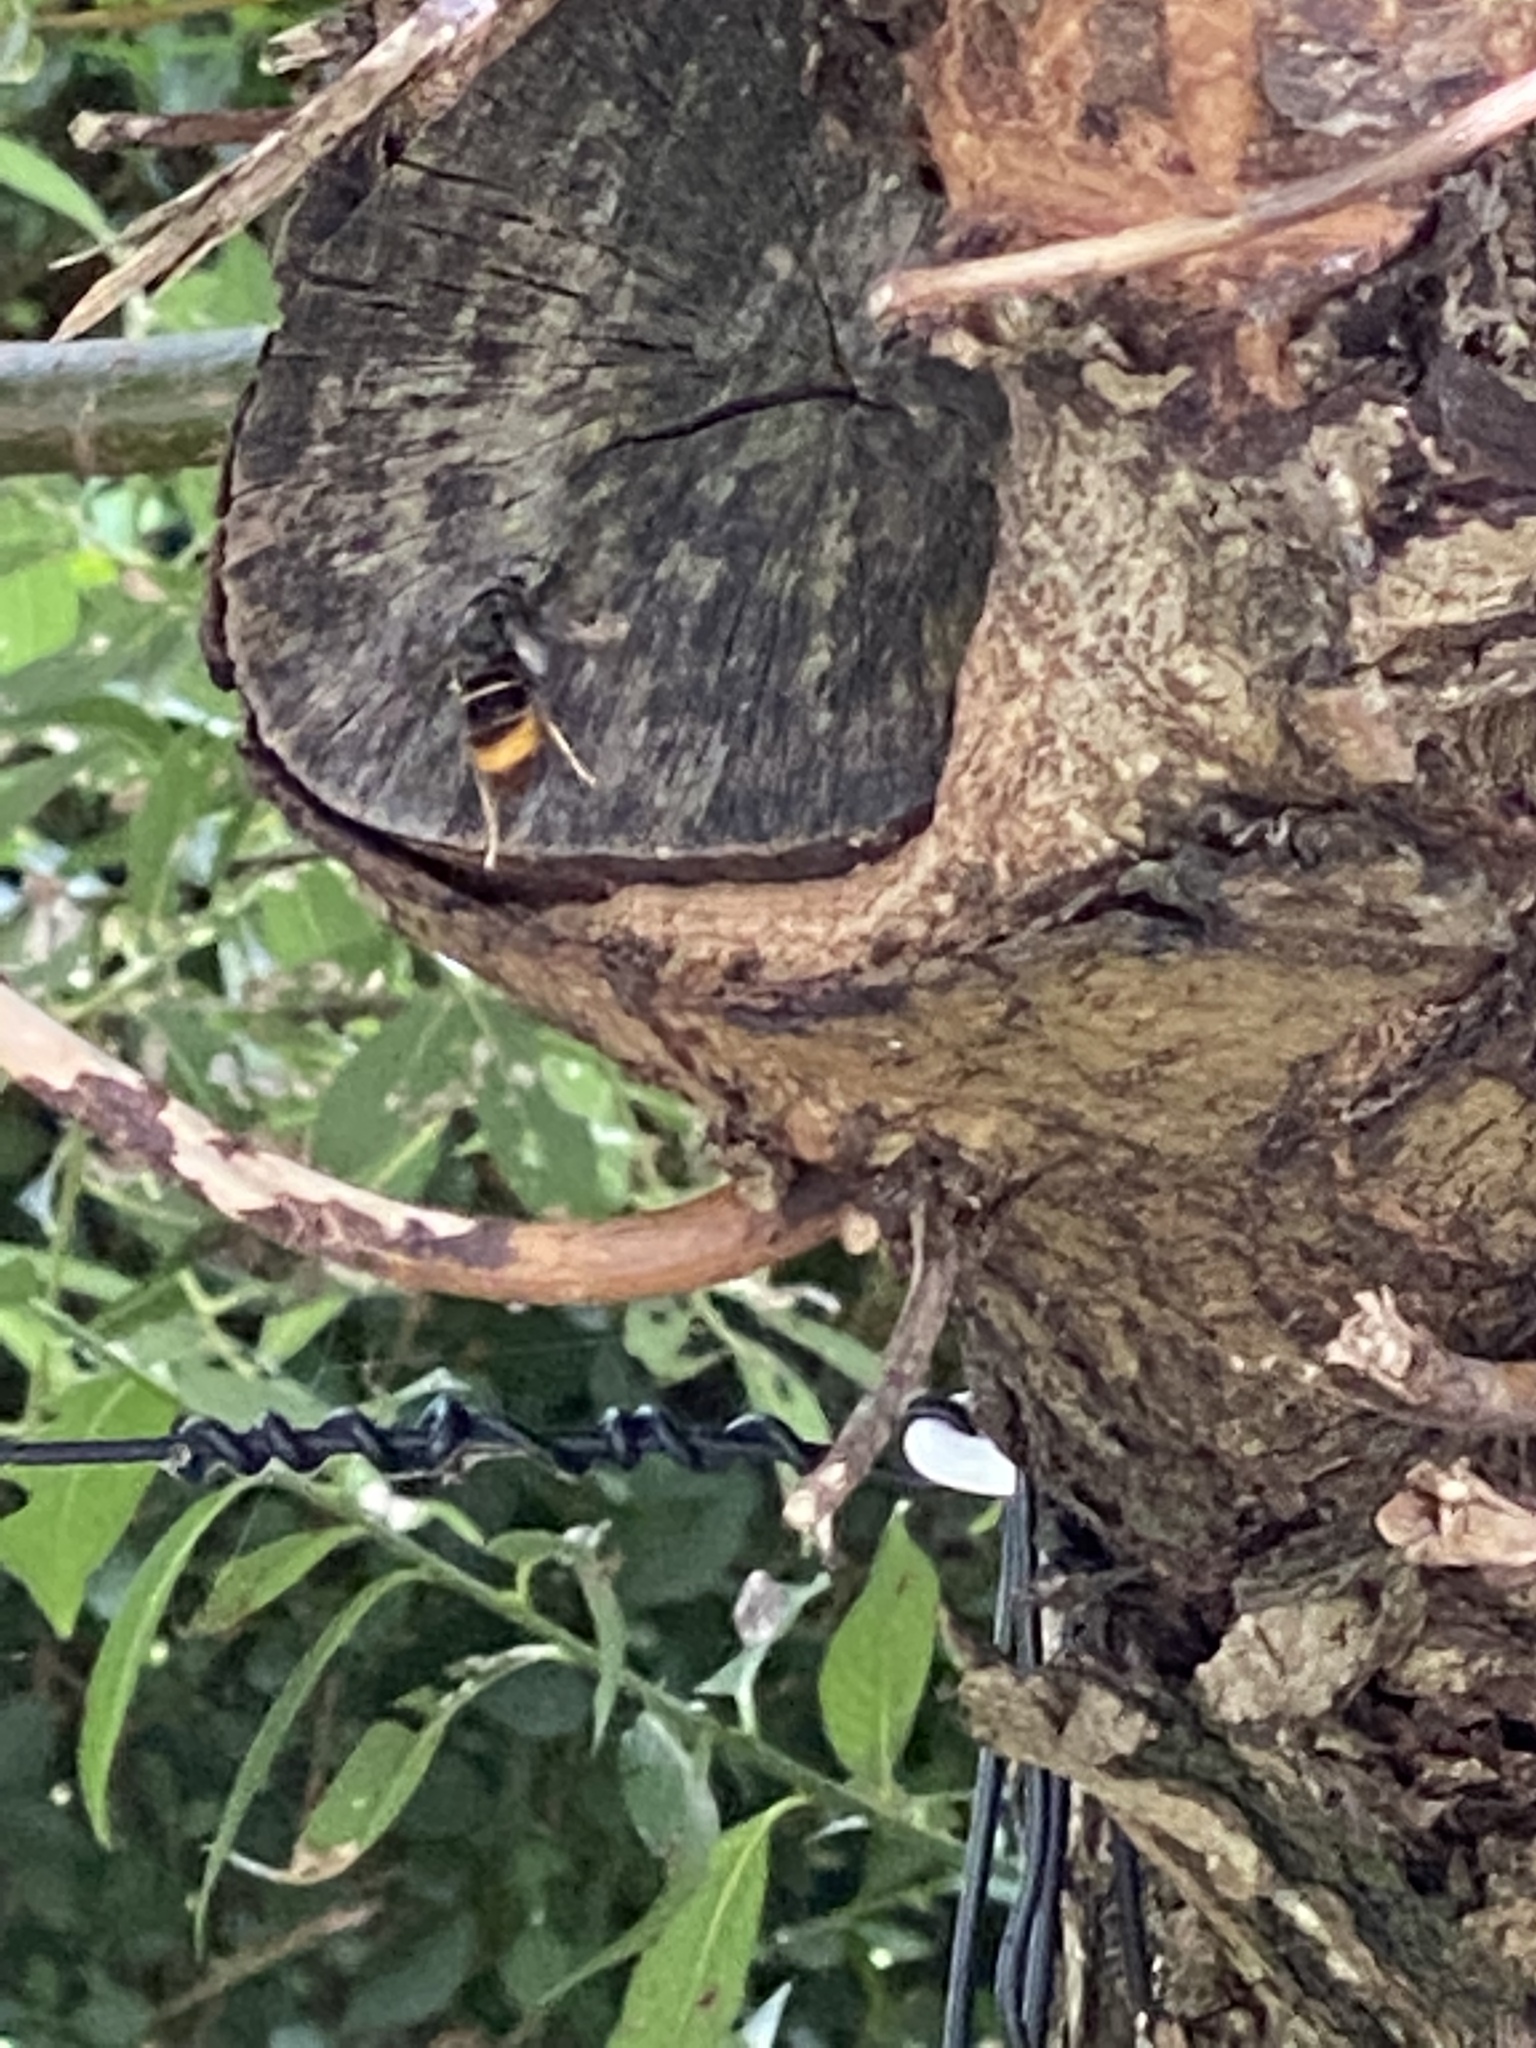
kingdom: Animalia
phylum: Arthropoda
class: Insecta
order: Hymenoptera
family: Vespidae
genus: Vespa
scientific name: Vespa velutina
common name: Asian hornet
